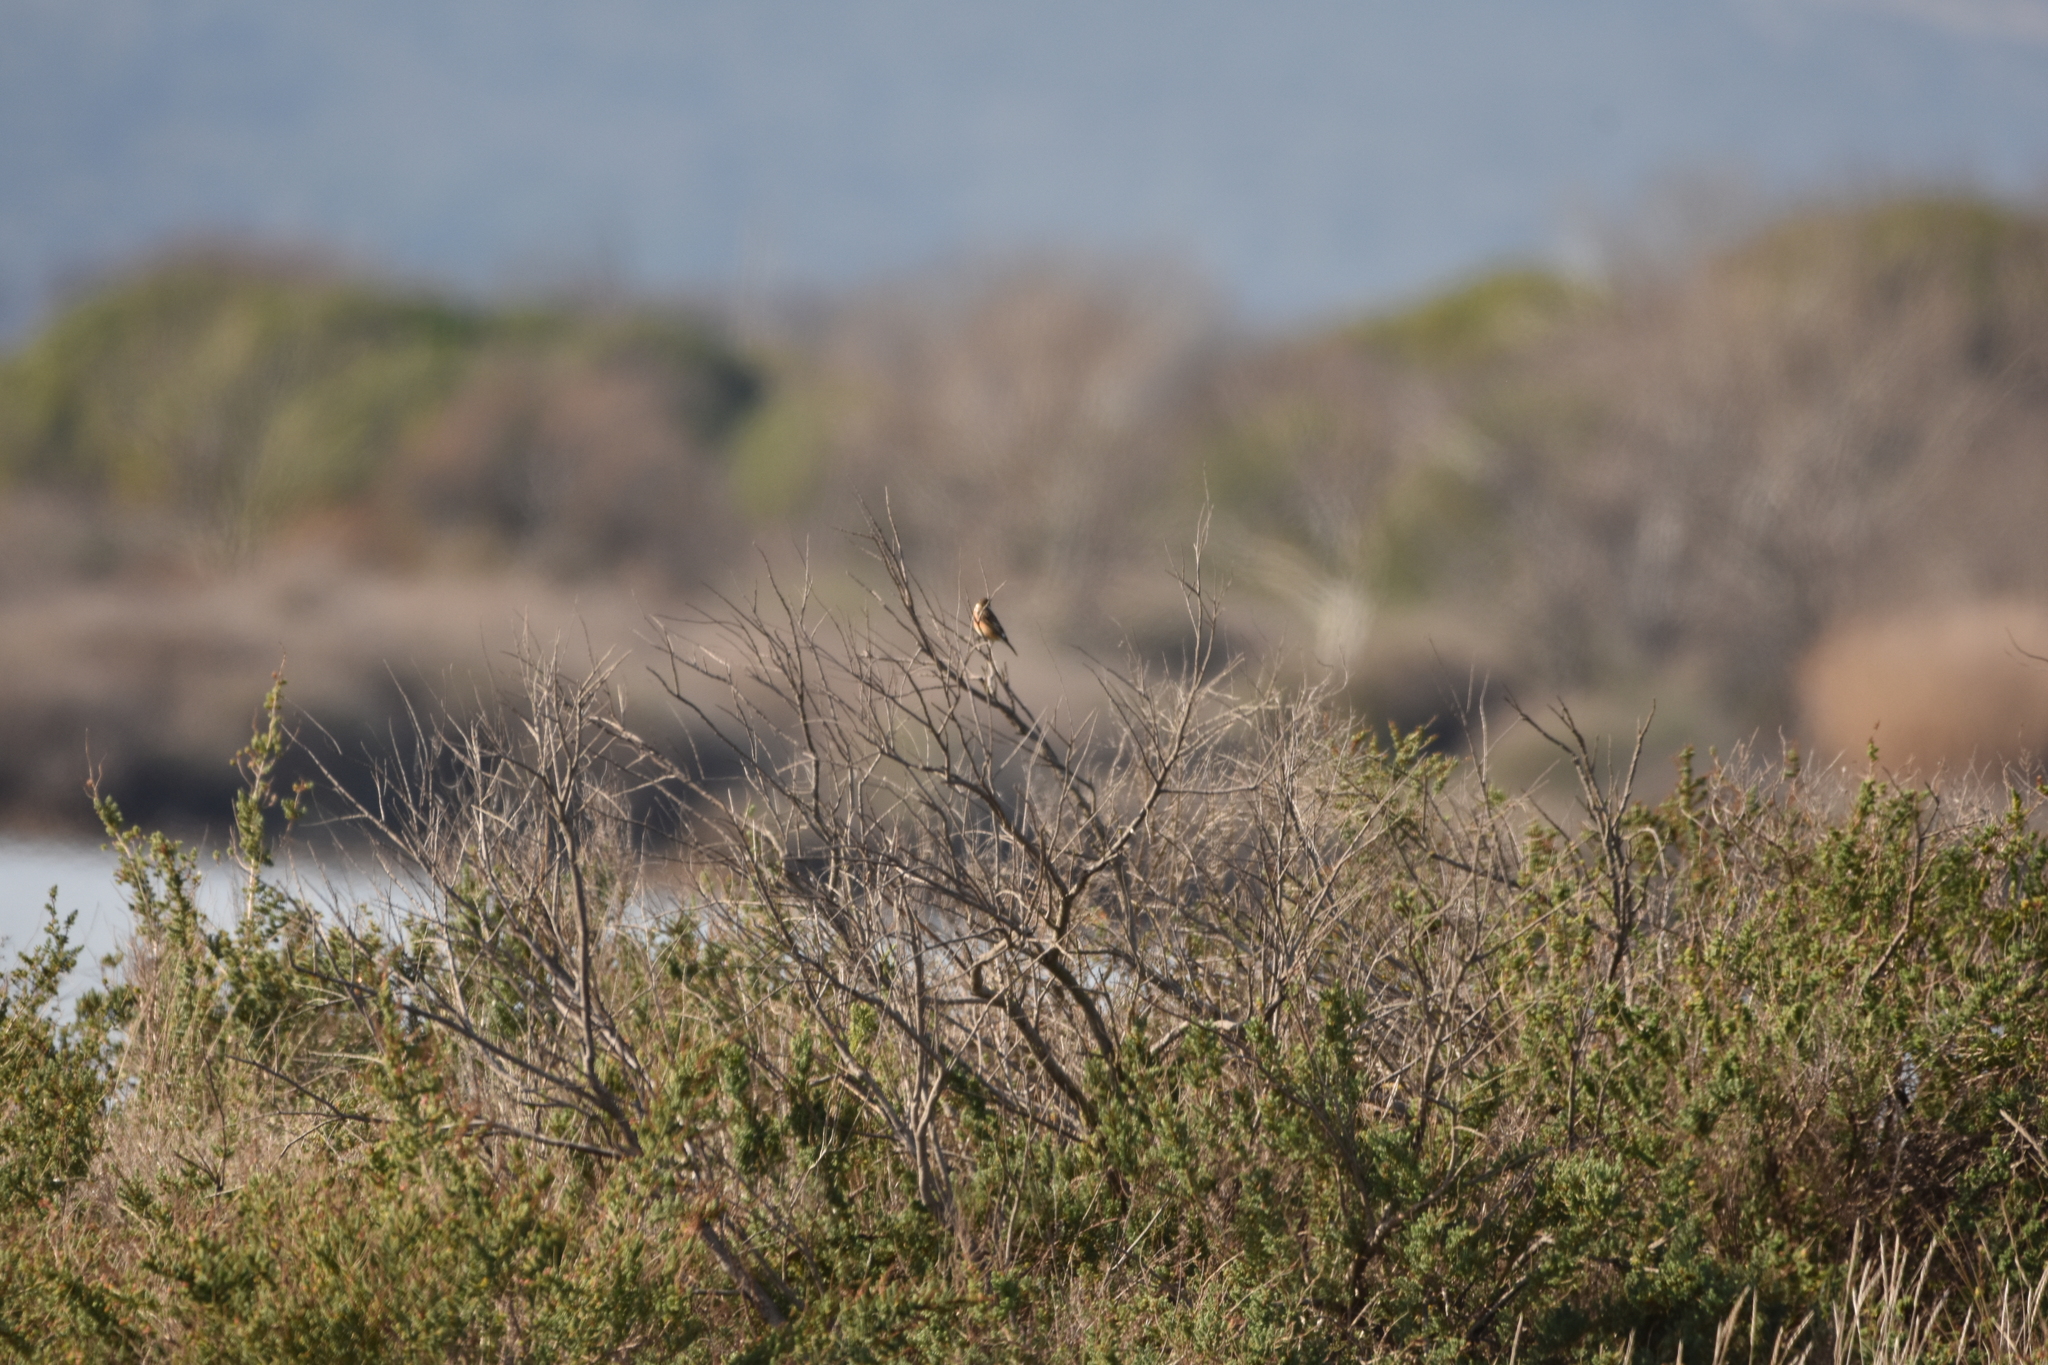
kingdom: Animalia
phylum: Chordata
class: Aves
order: Passeriformes
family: Muscicapidae
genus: Saxicola
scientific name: Saxicola rubicola
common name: European stonechat
